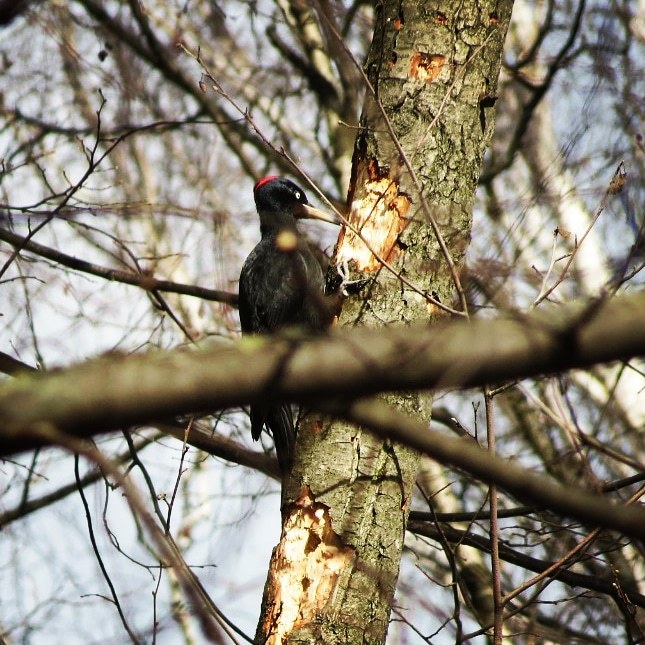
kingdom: Animalia
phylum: Chordata
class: Aves
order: Piciformes
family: Picidae
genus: Dryocopus
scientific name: Dryocopus martius
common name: Black woodpecker
